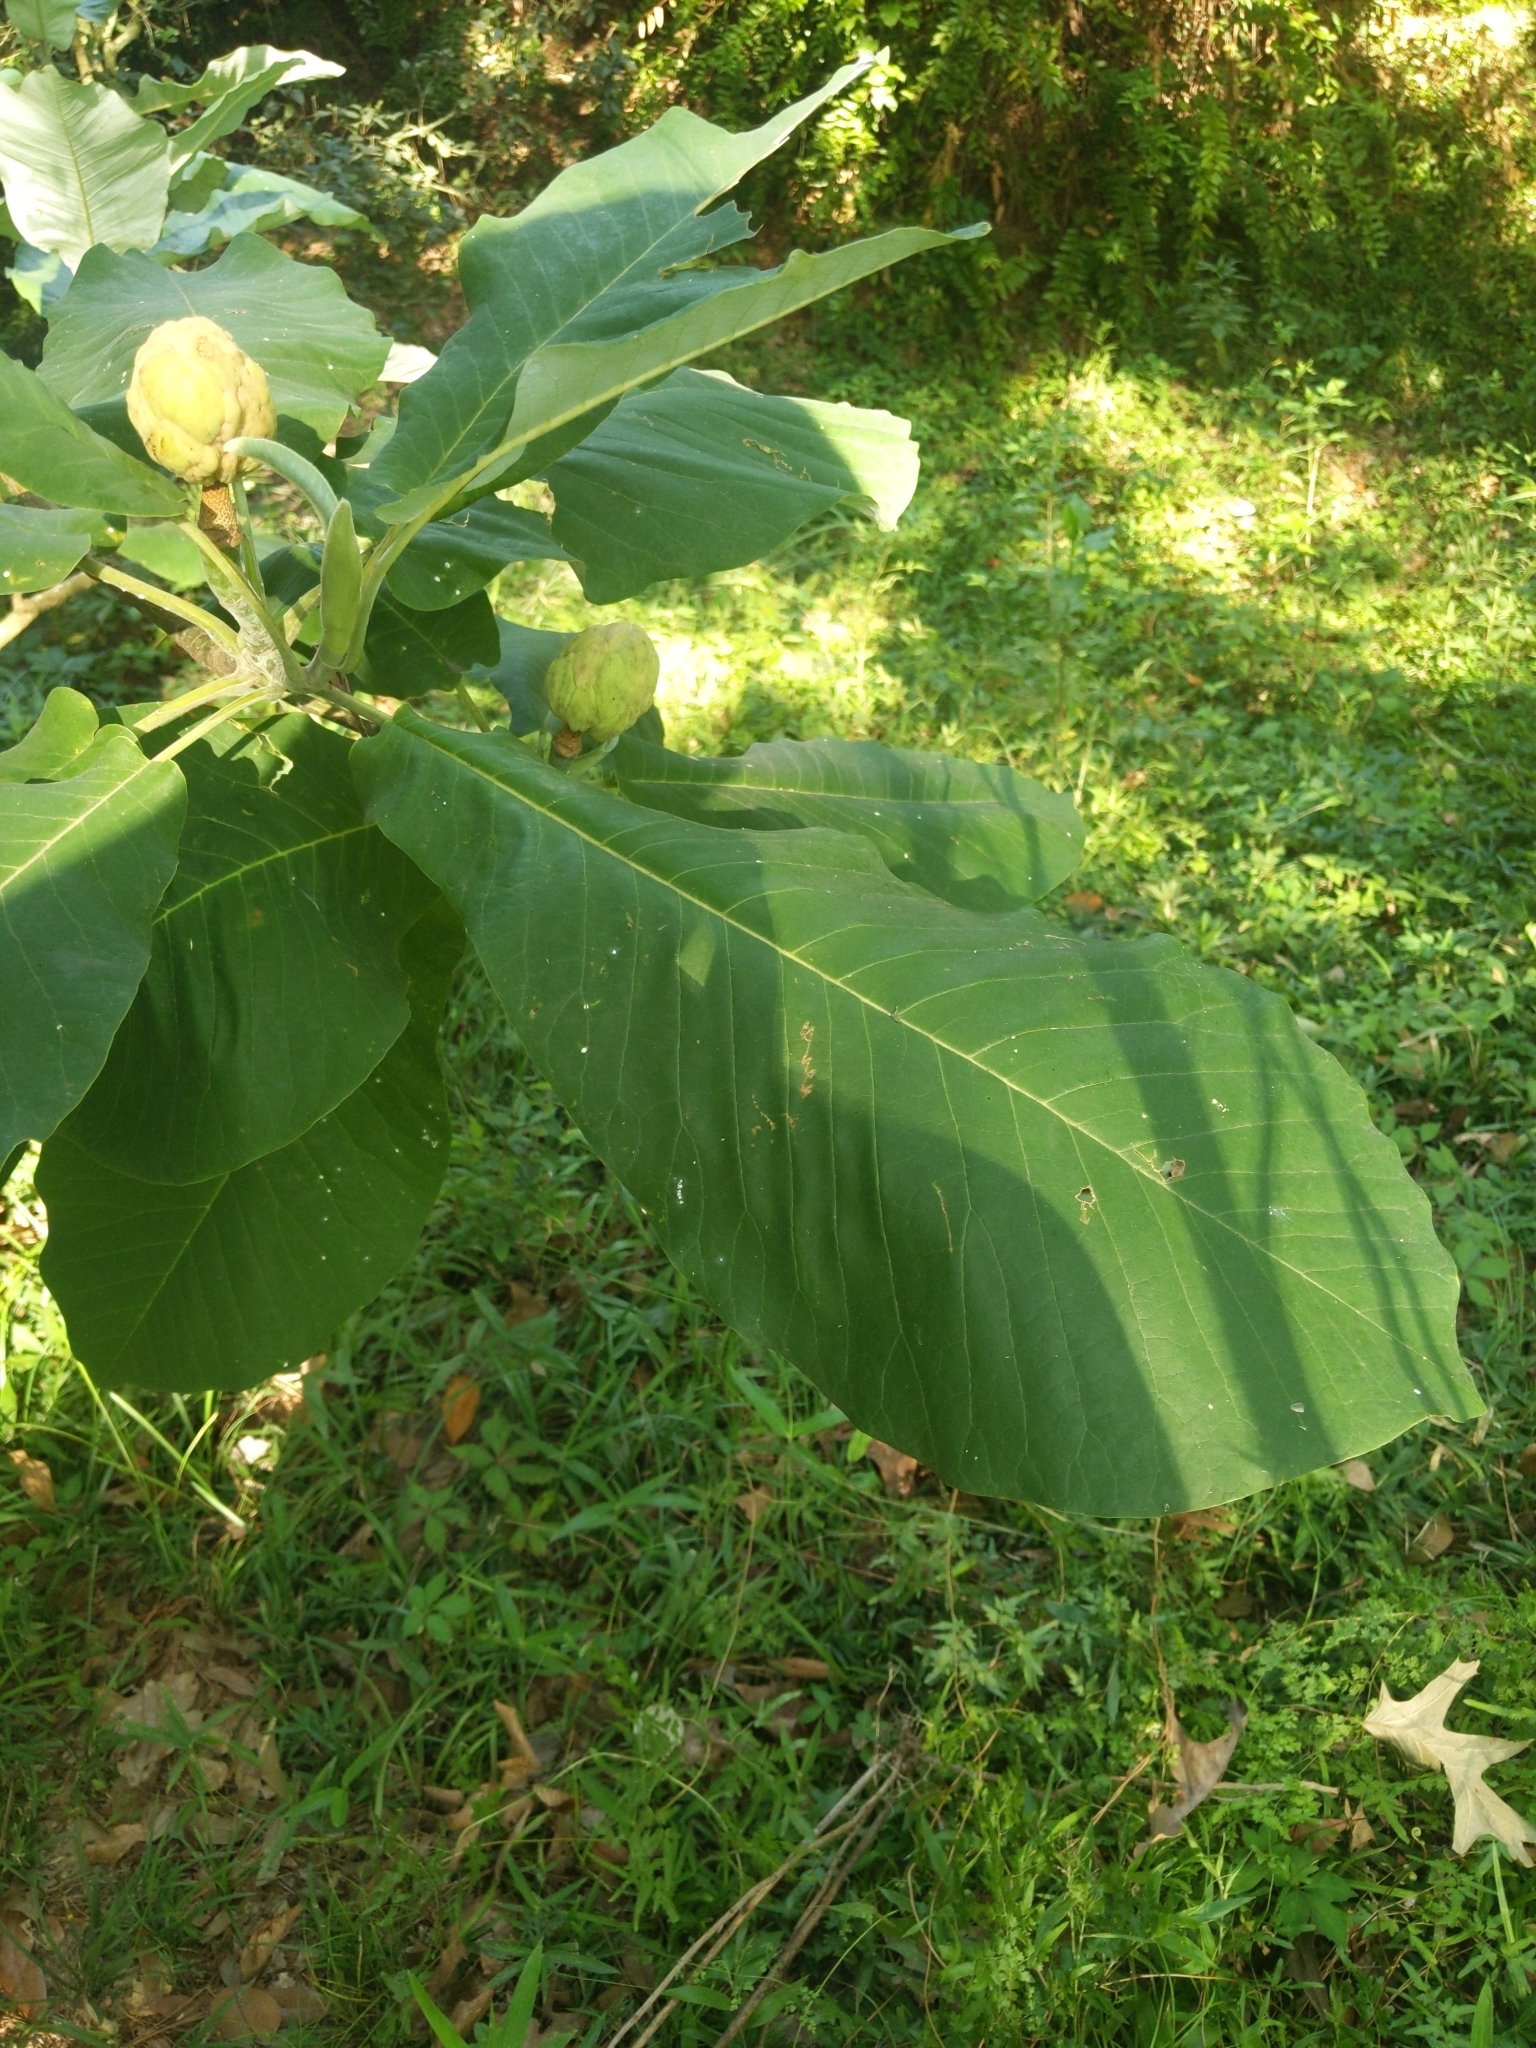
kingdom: Plantae
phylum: Tracheophyta
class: Magnoliopsida
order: Magnoliales
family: Magnoliaceae
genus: Magnolia
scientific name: Magnolia macrophylla
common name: Big-leaf magnolia
